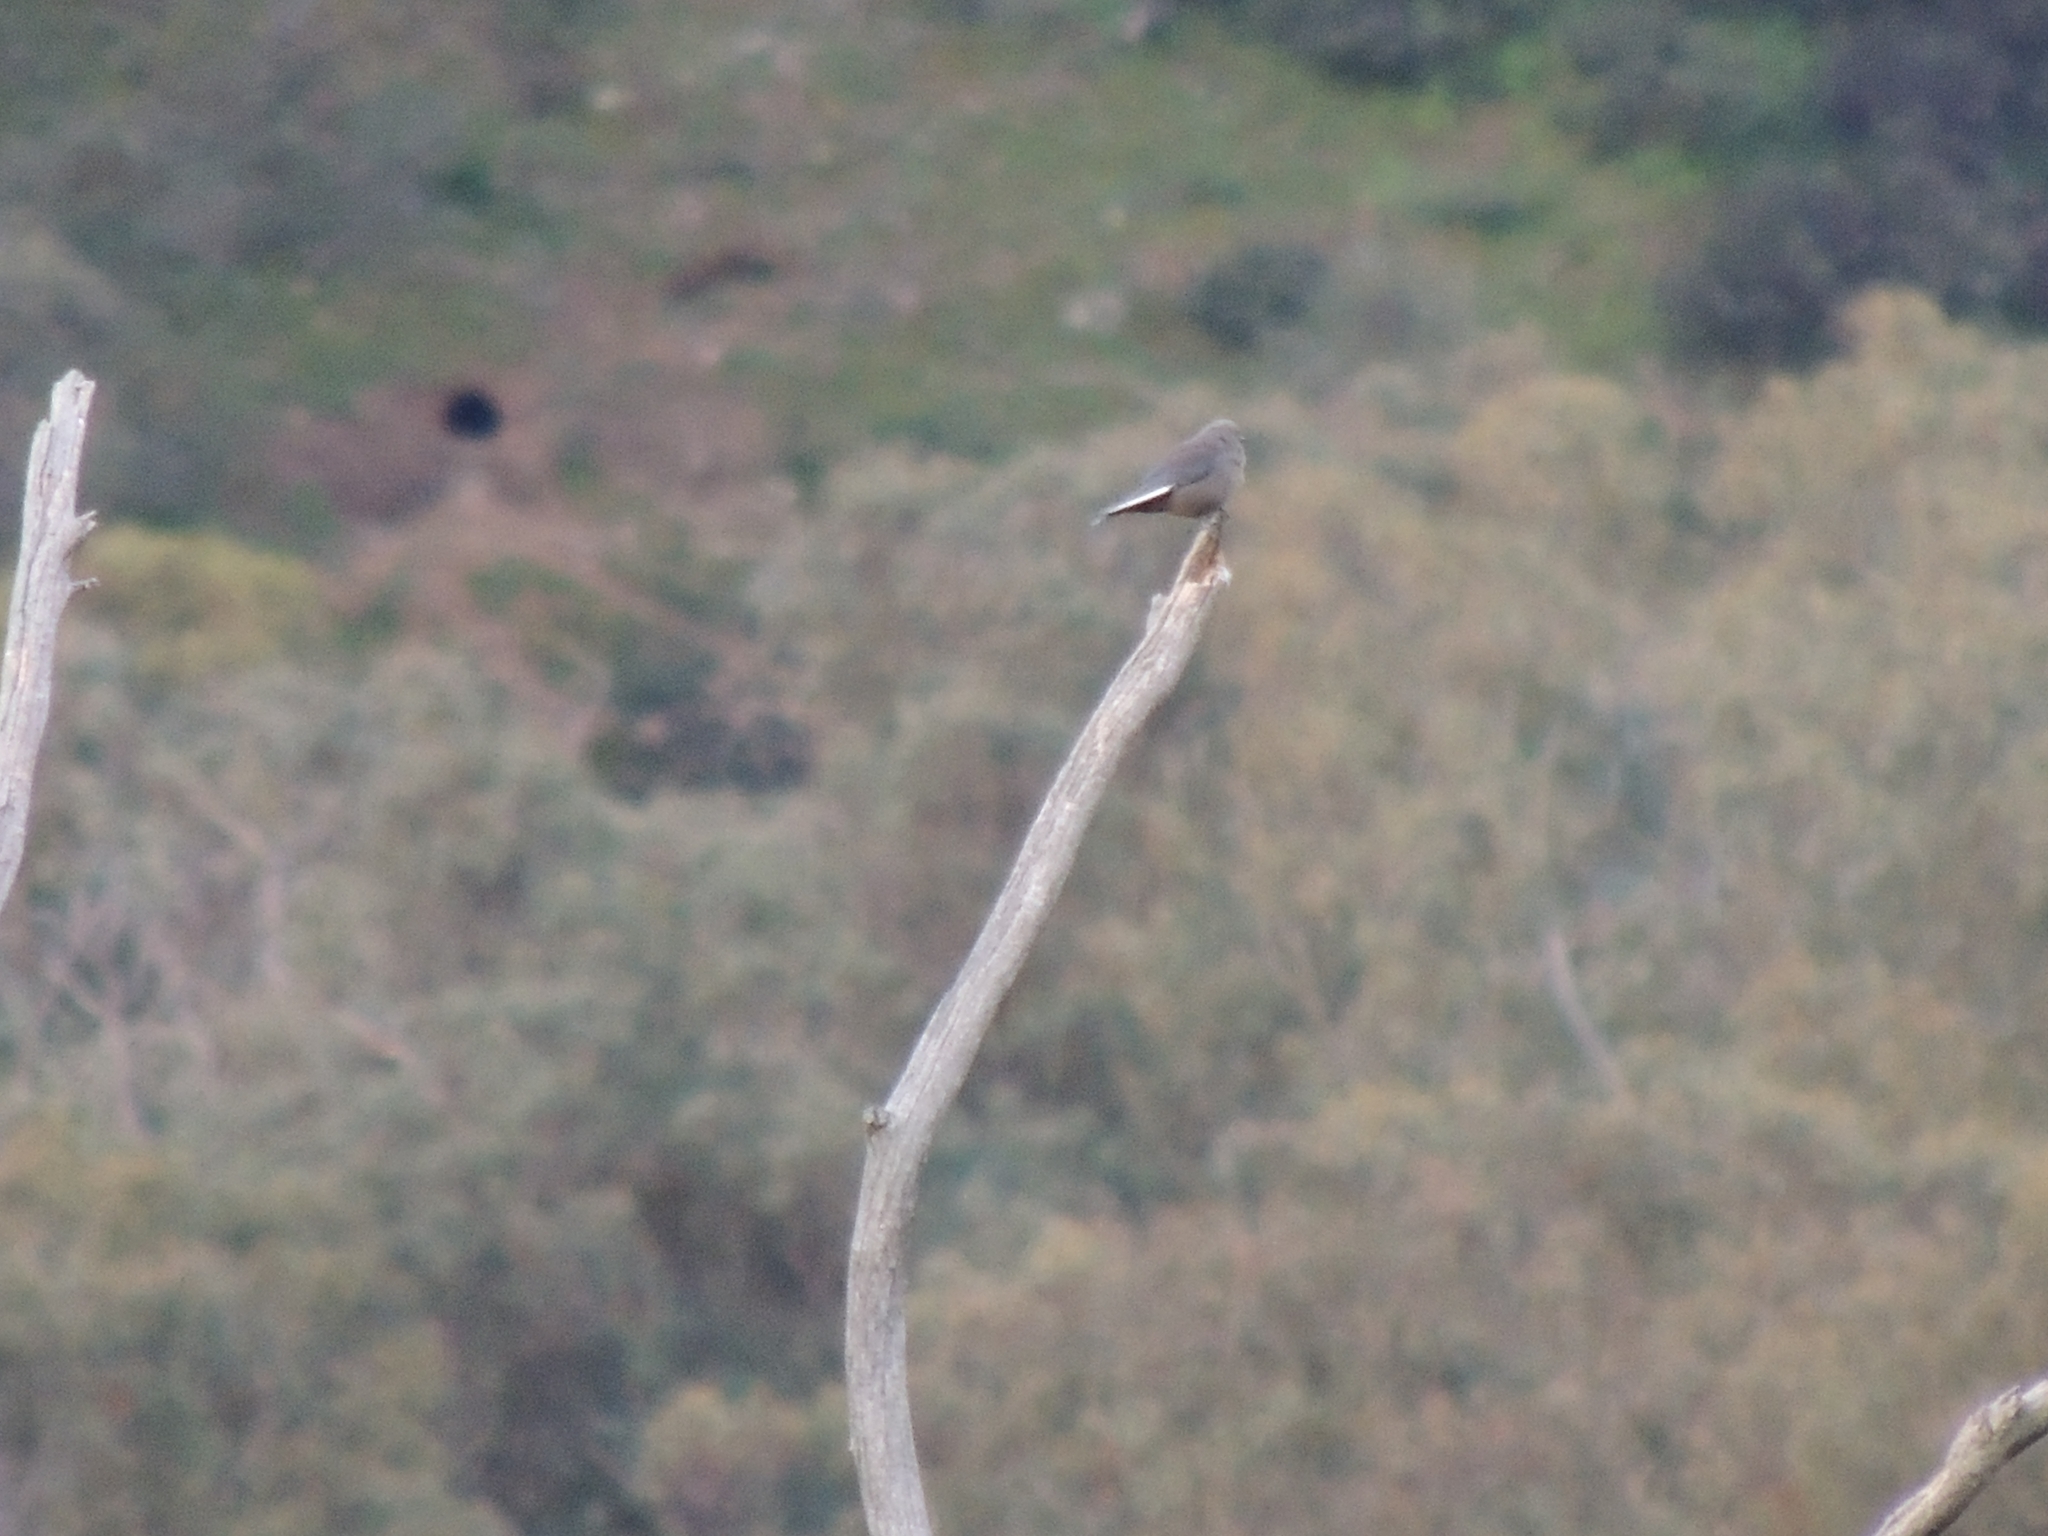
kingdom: Animalia
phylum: Chordata
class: Aves
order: Passeriformes
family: Artamidae
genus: Artamus
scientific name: Artamus cyanopterus
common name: Dusky woodswallow
